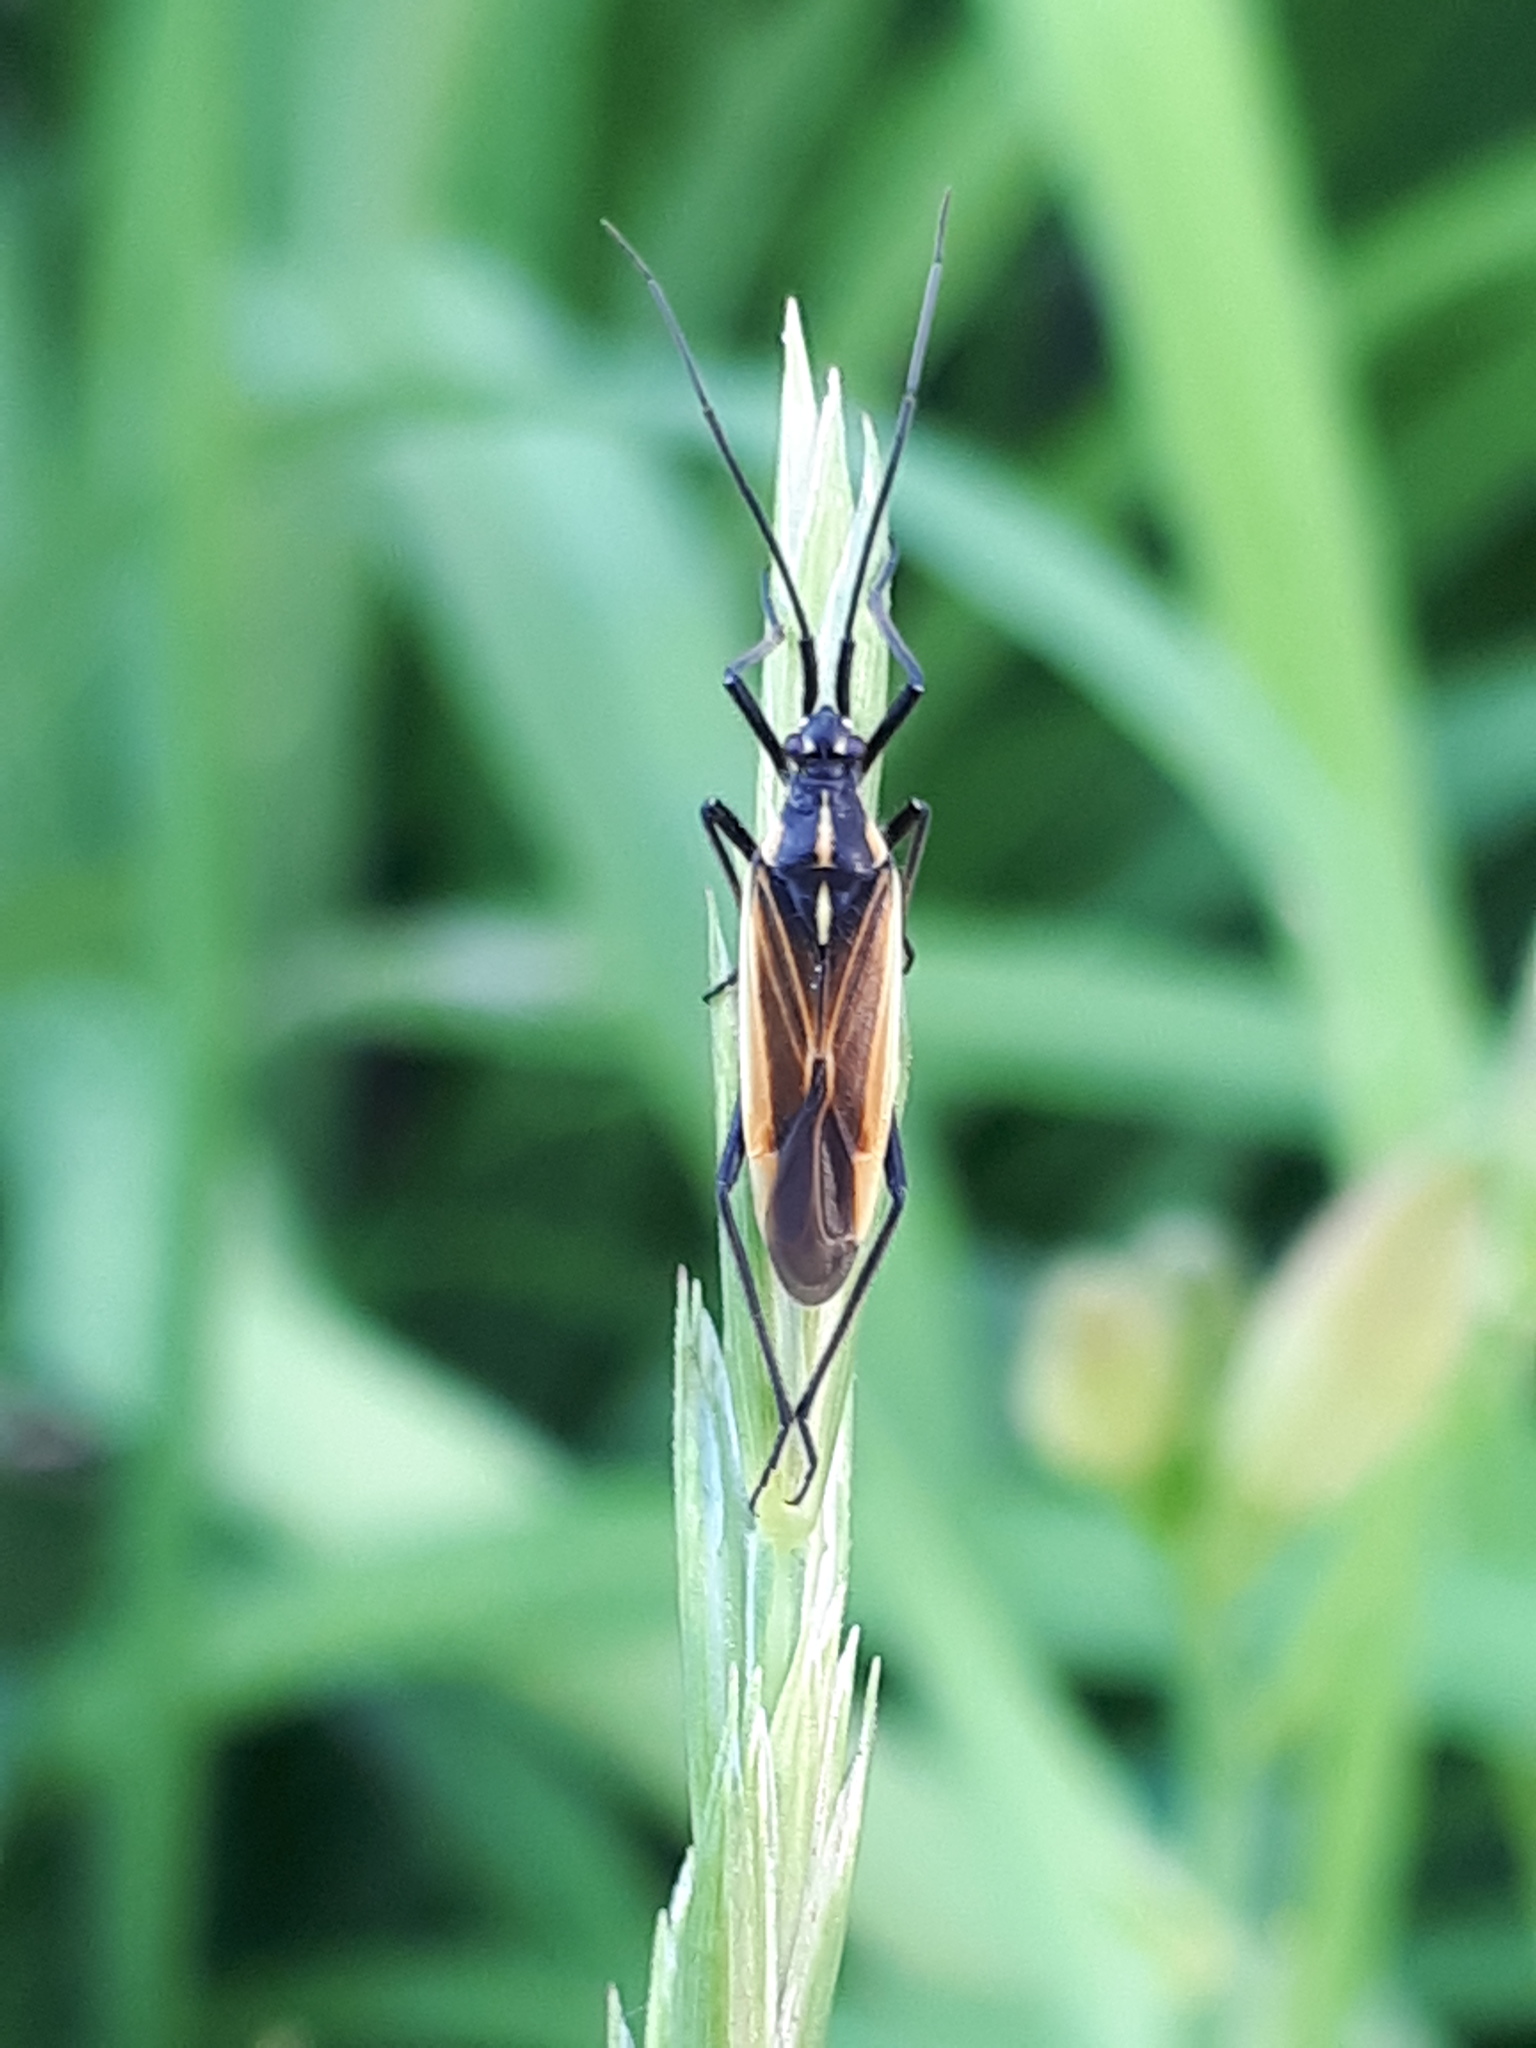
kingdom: Animalia
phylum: Arthropoda
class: Insecta
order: Hemiptera
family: Miridae
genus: Leptopterna
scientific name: Leptopterna dolabrata
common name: Meadow plant bug
